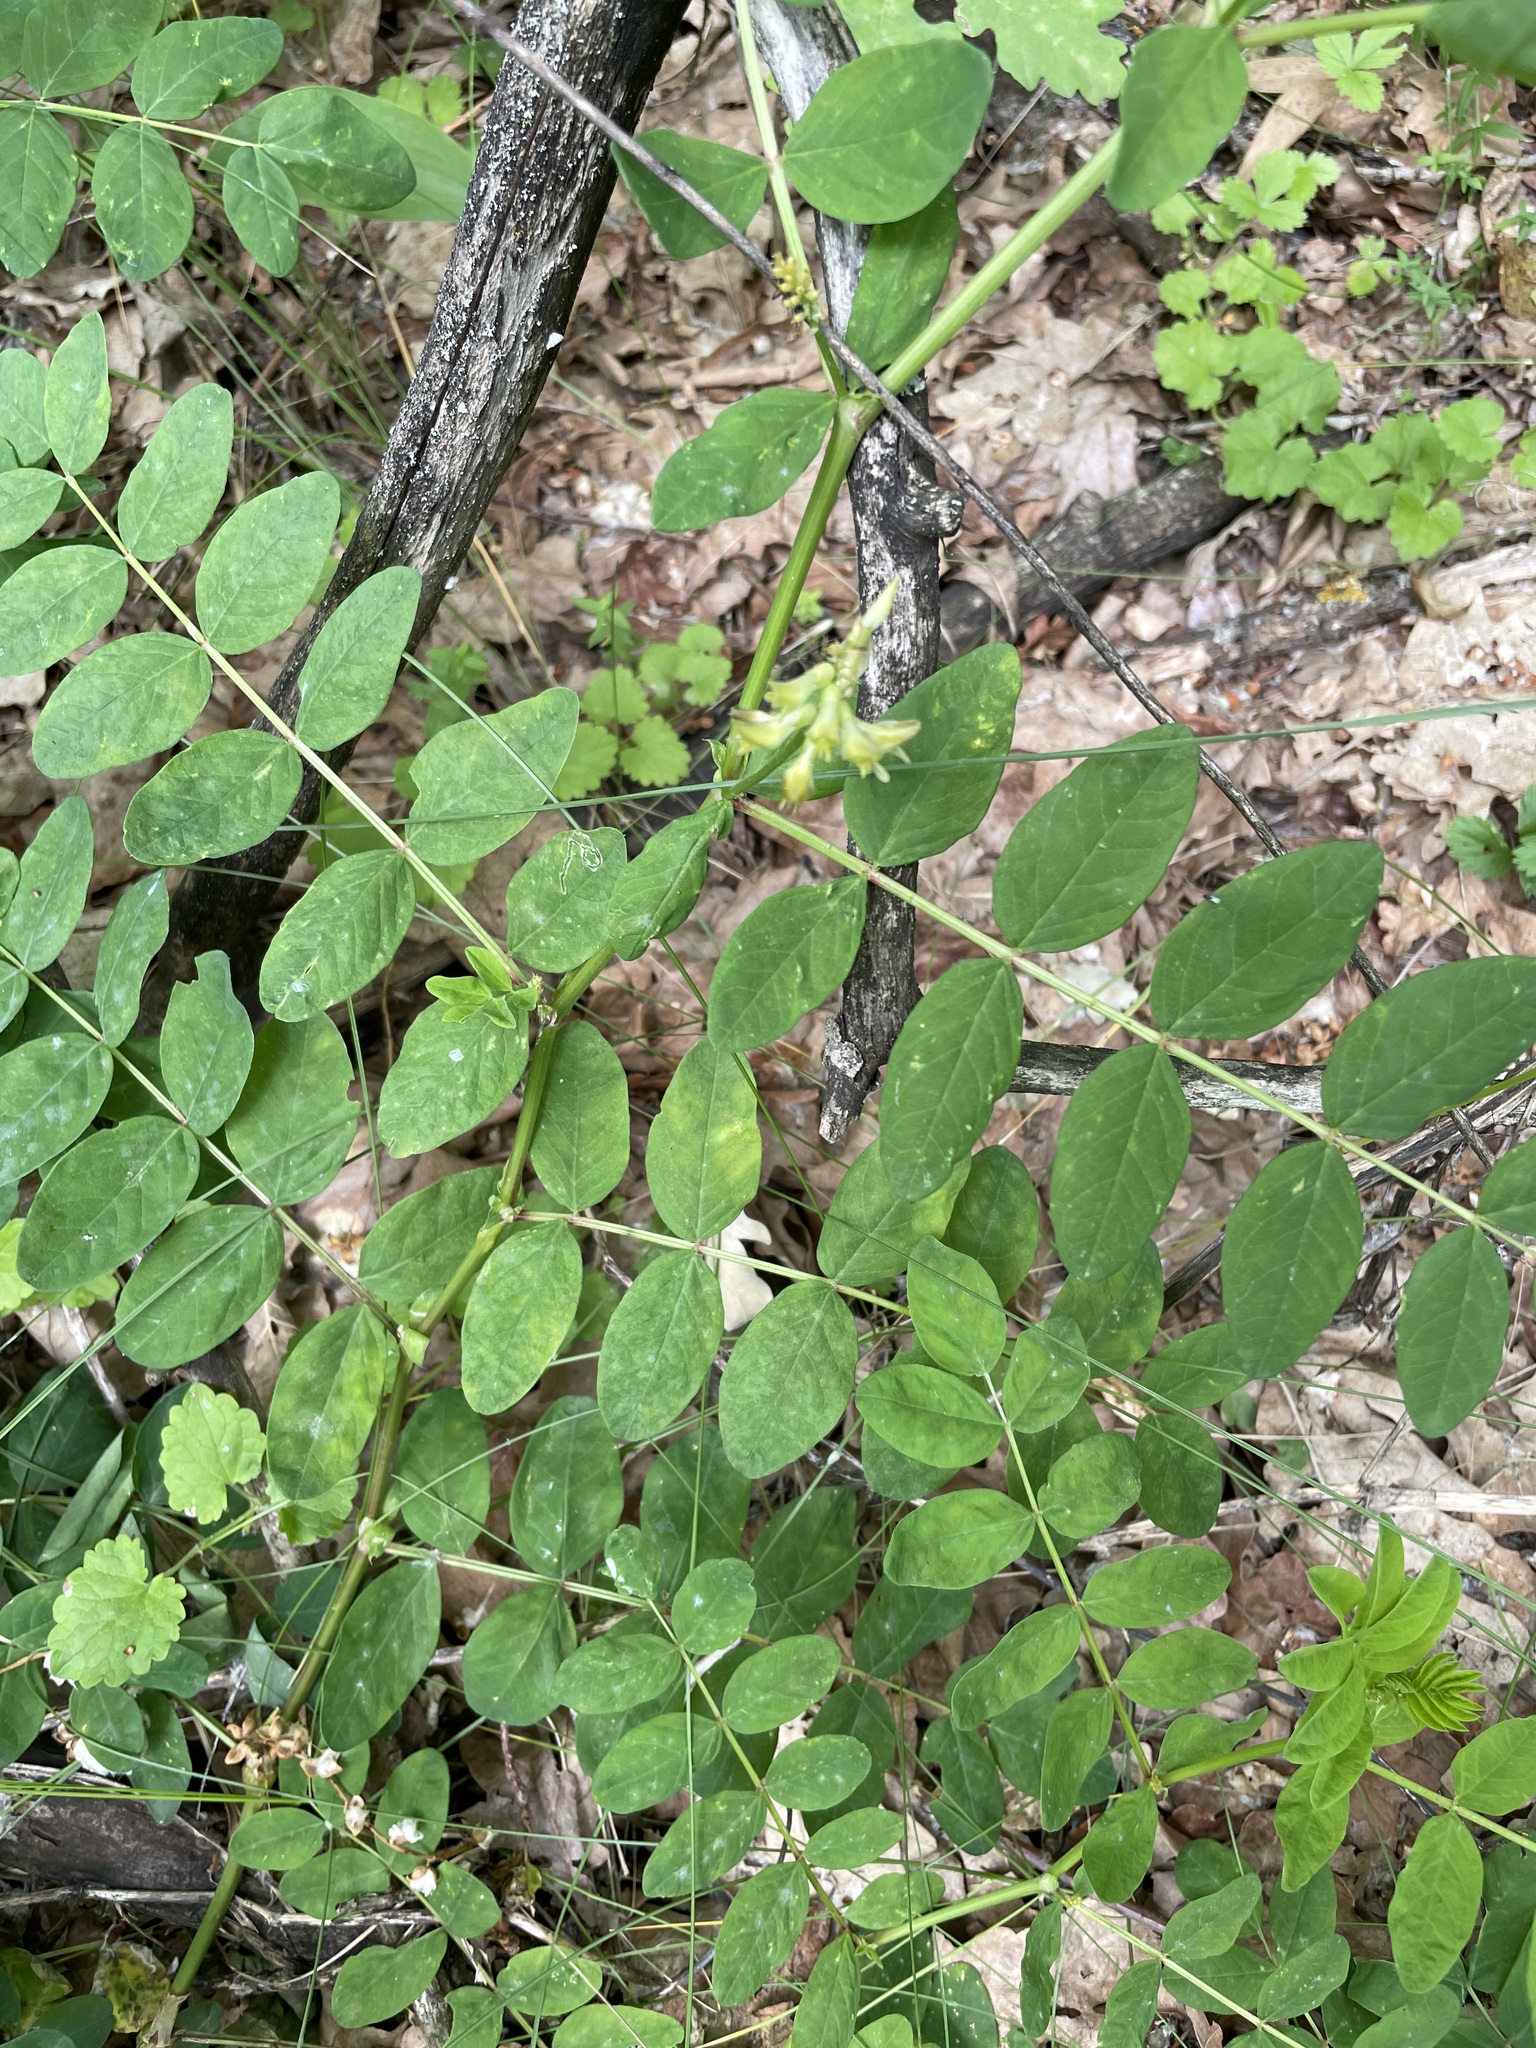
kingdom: Plantae
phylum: Tracheophyta
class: Magnoliopsida
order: Fabales
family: Fabaceae
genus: Astragalus
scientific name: Astragalus glycyphyllos
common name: Wild liquorice
